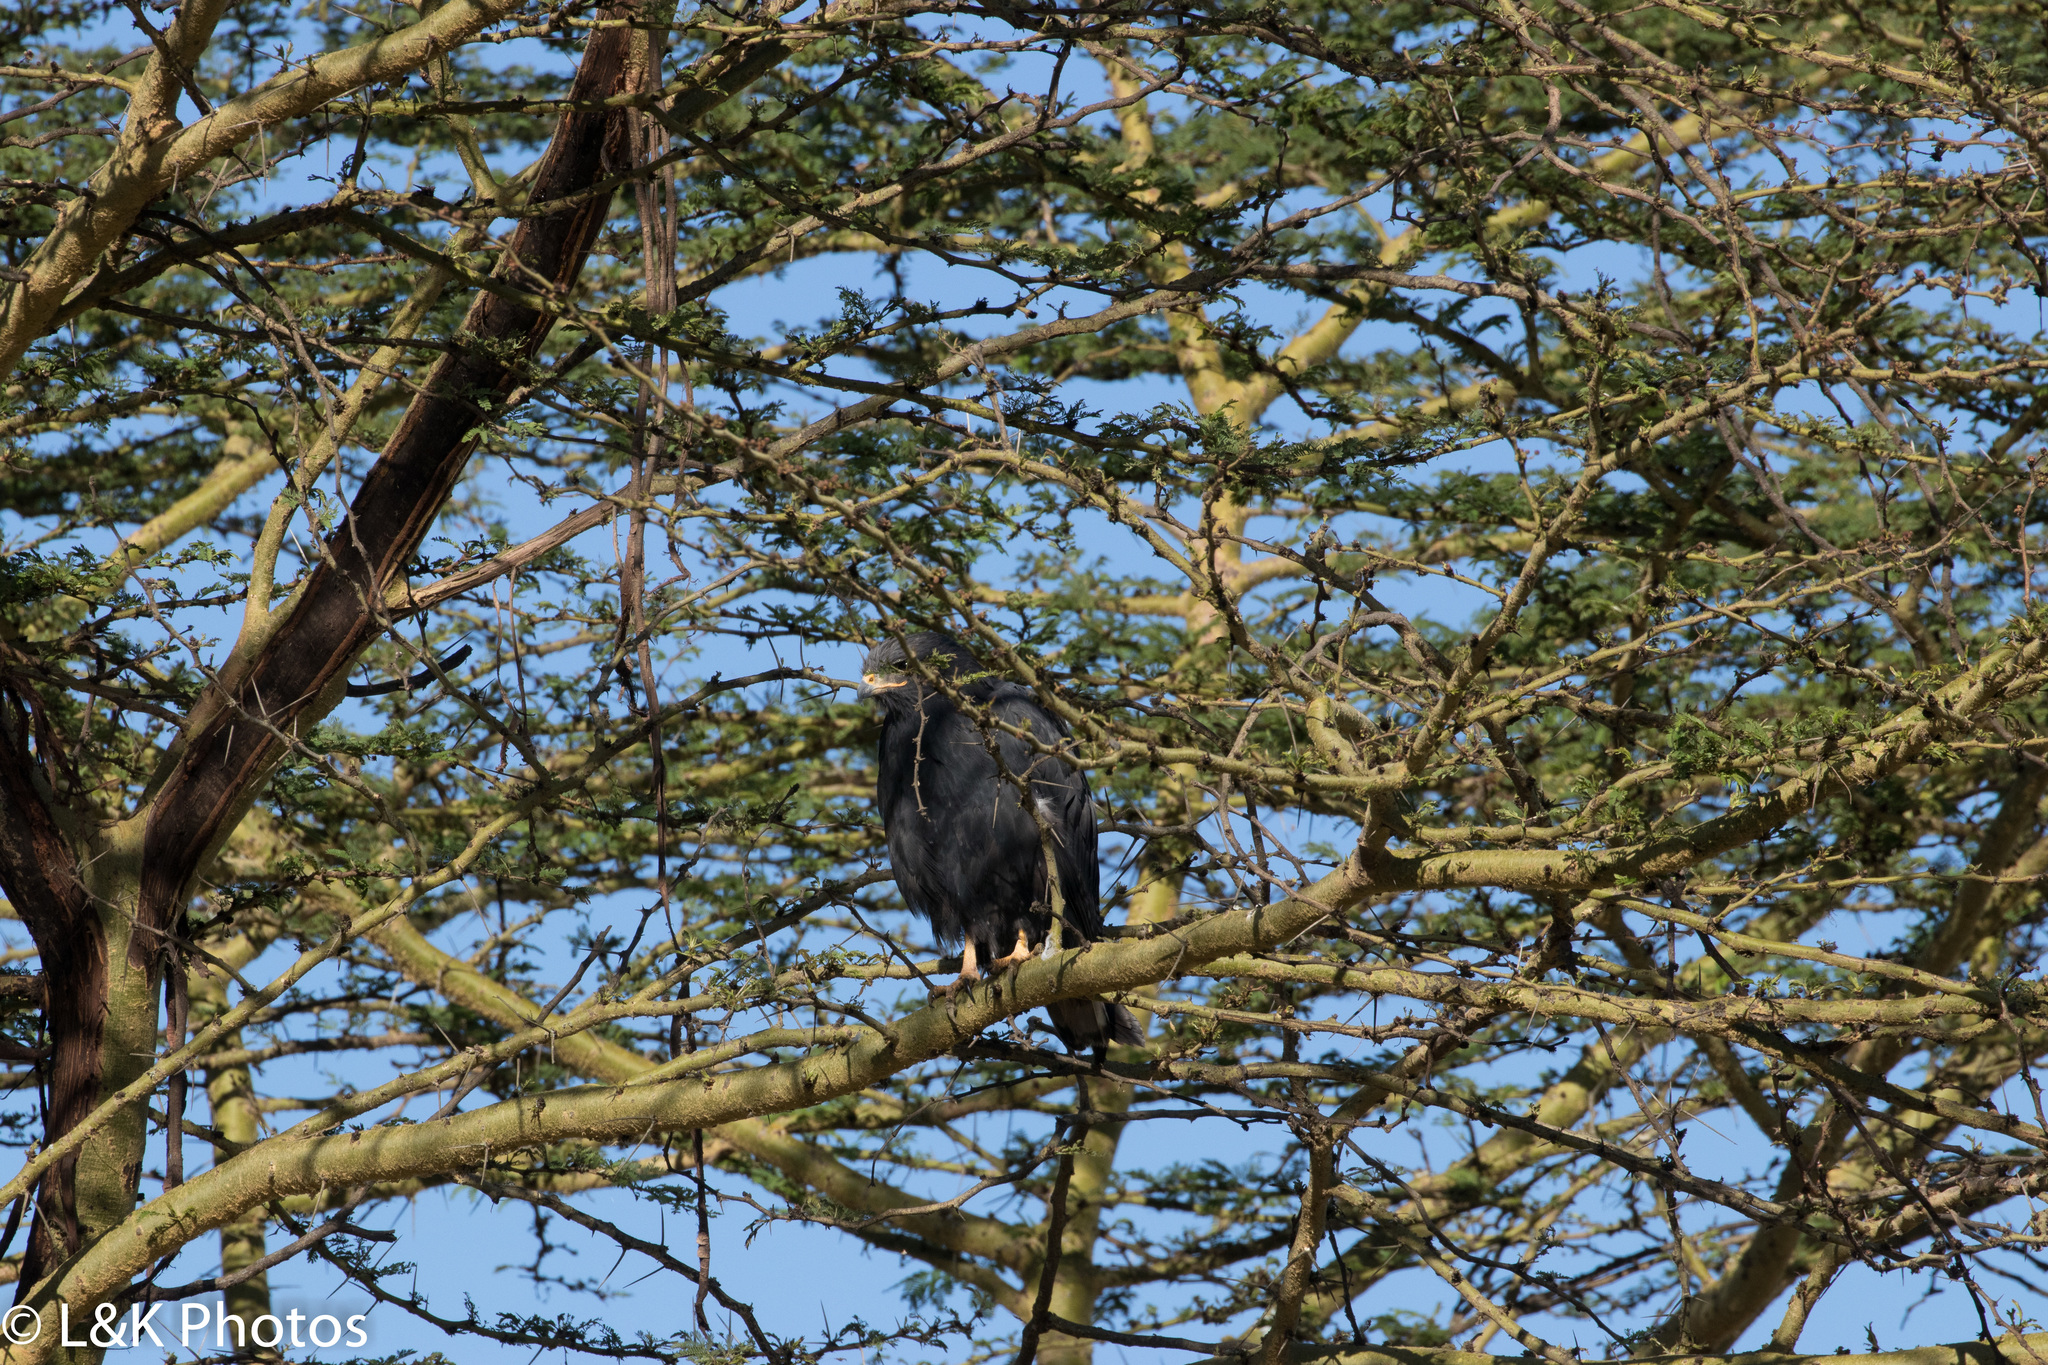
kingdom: Animalia
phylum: Chordata
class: Aves
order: Accipitriformes
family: Accipitridae
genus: Micronisus
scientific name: Micronisus gabar
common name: Gabar goshawk
